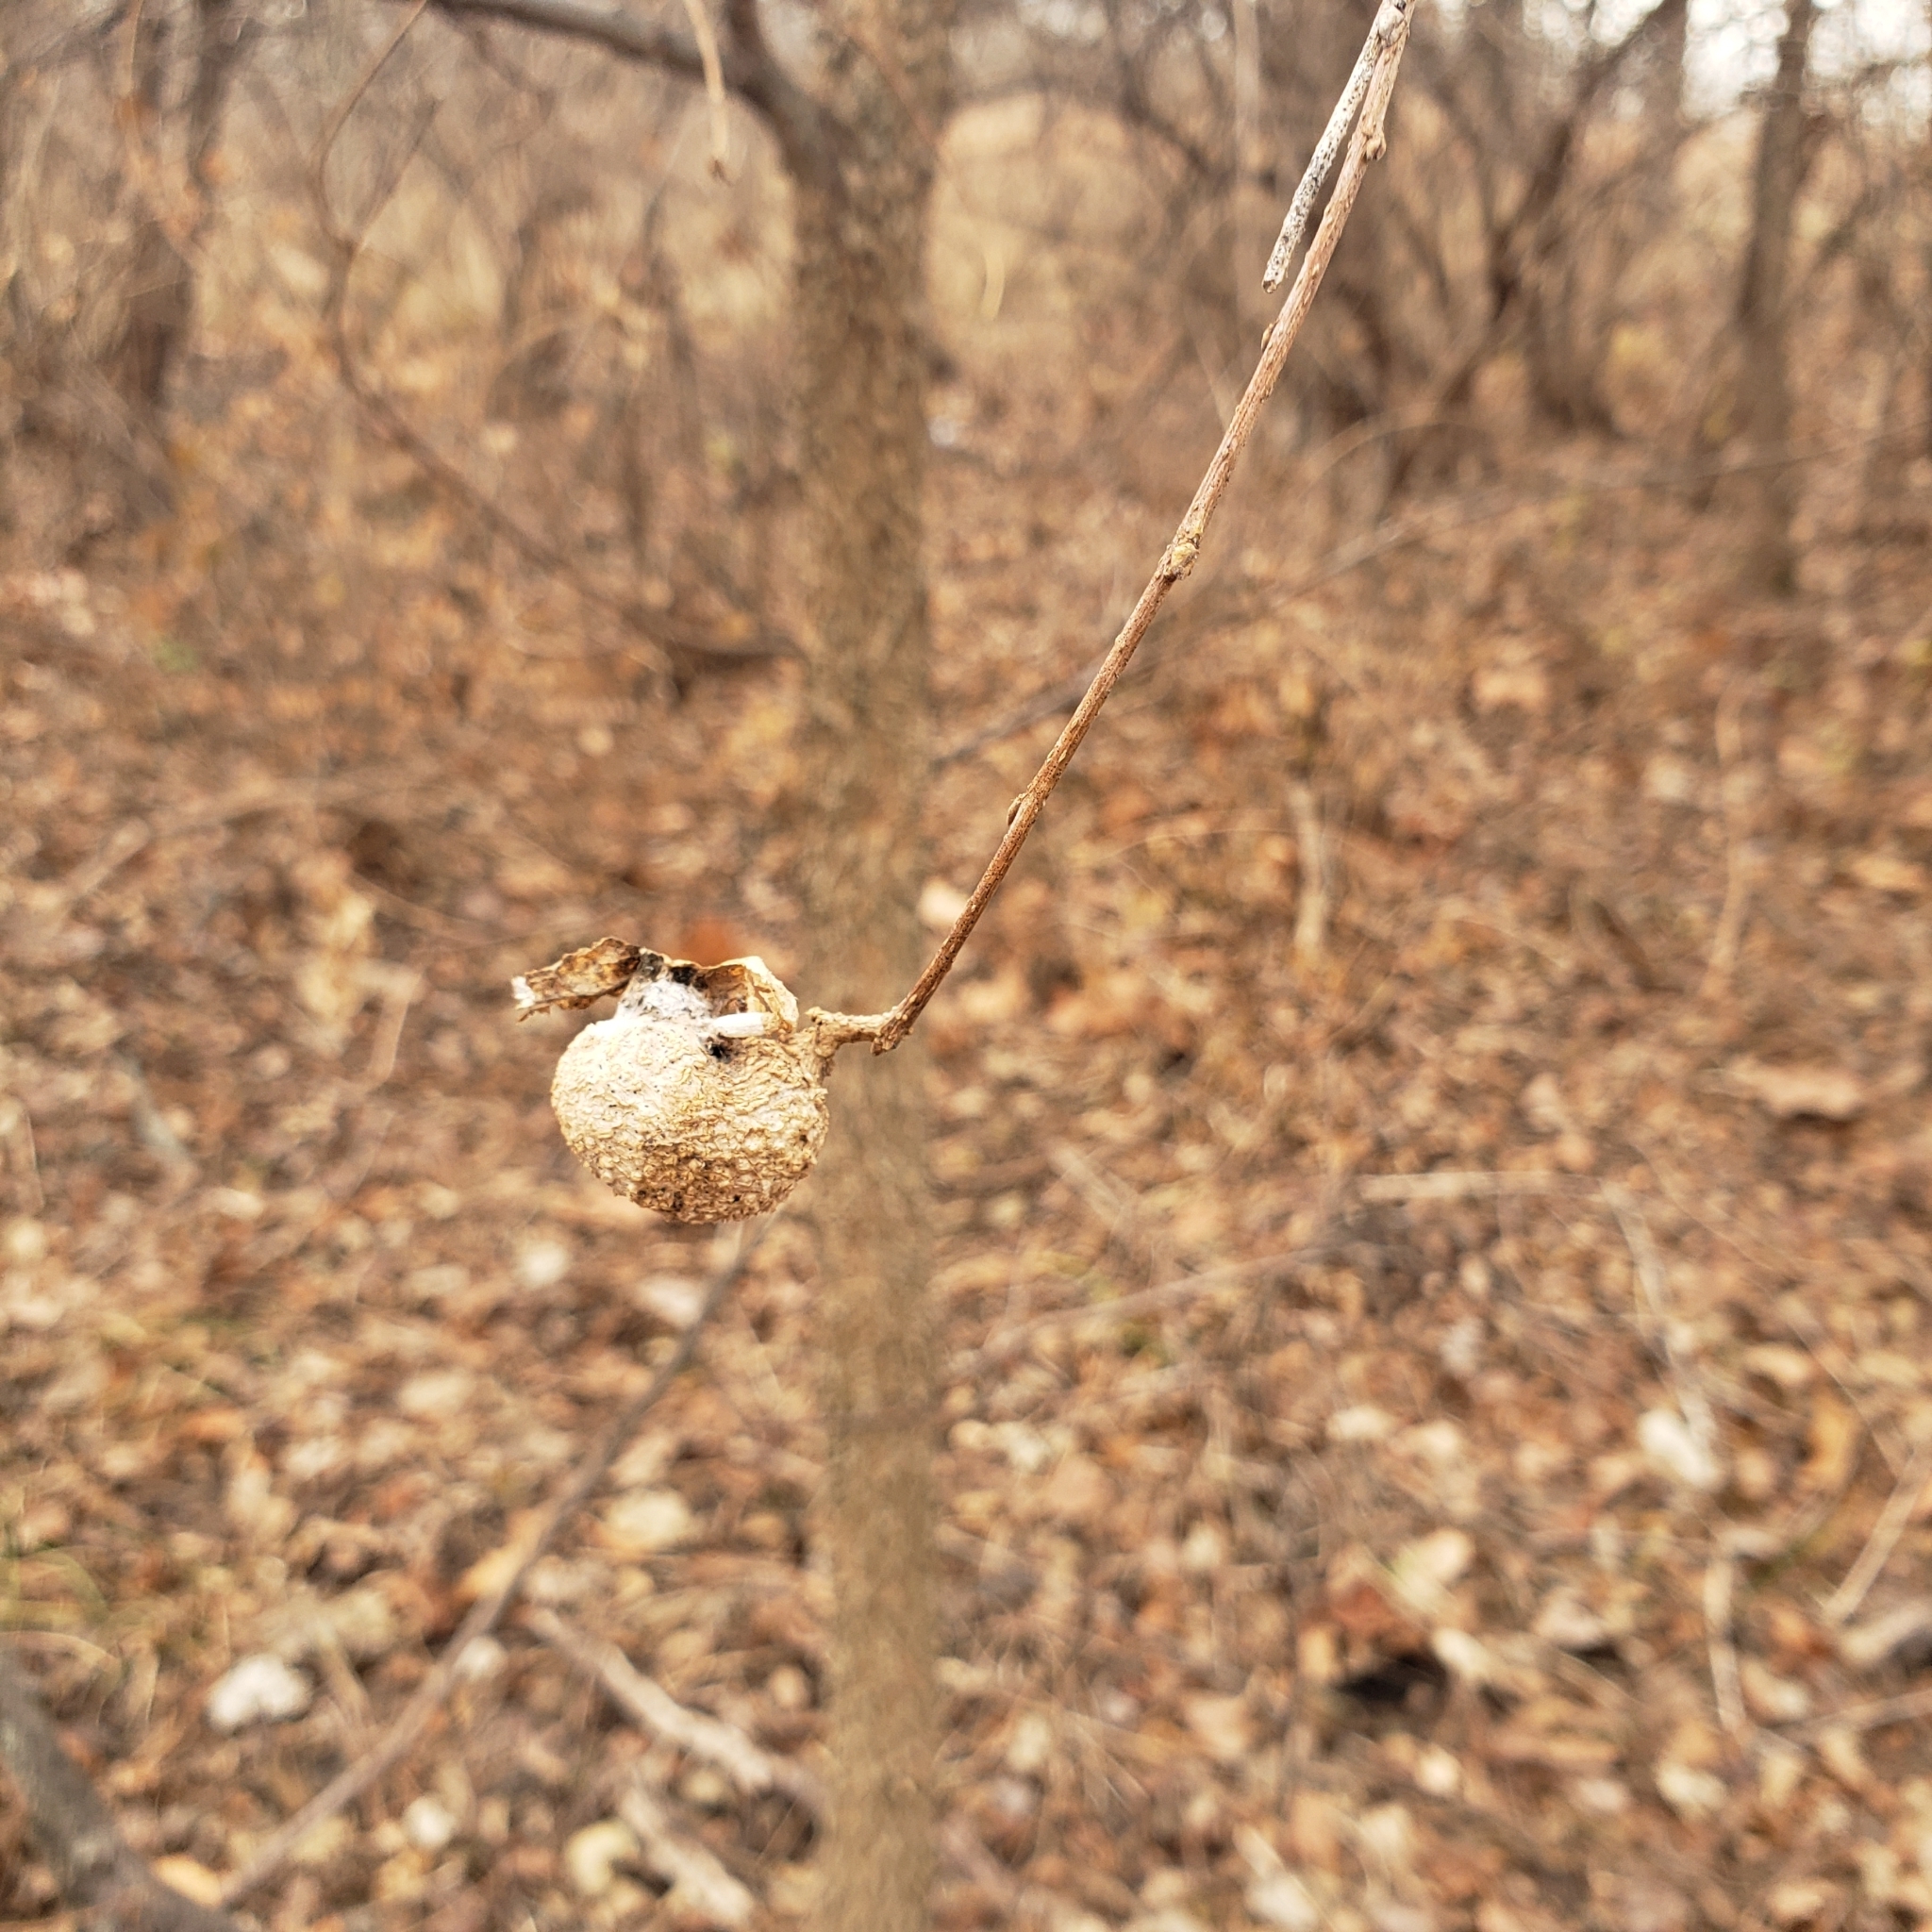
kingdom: Animalia
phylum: Arthropoda
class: Insecta
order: Hemiptera
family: Aphalaridae
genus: Pachypsylla
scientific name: Pachypsylla venusta
